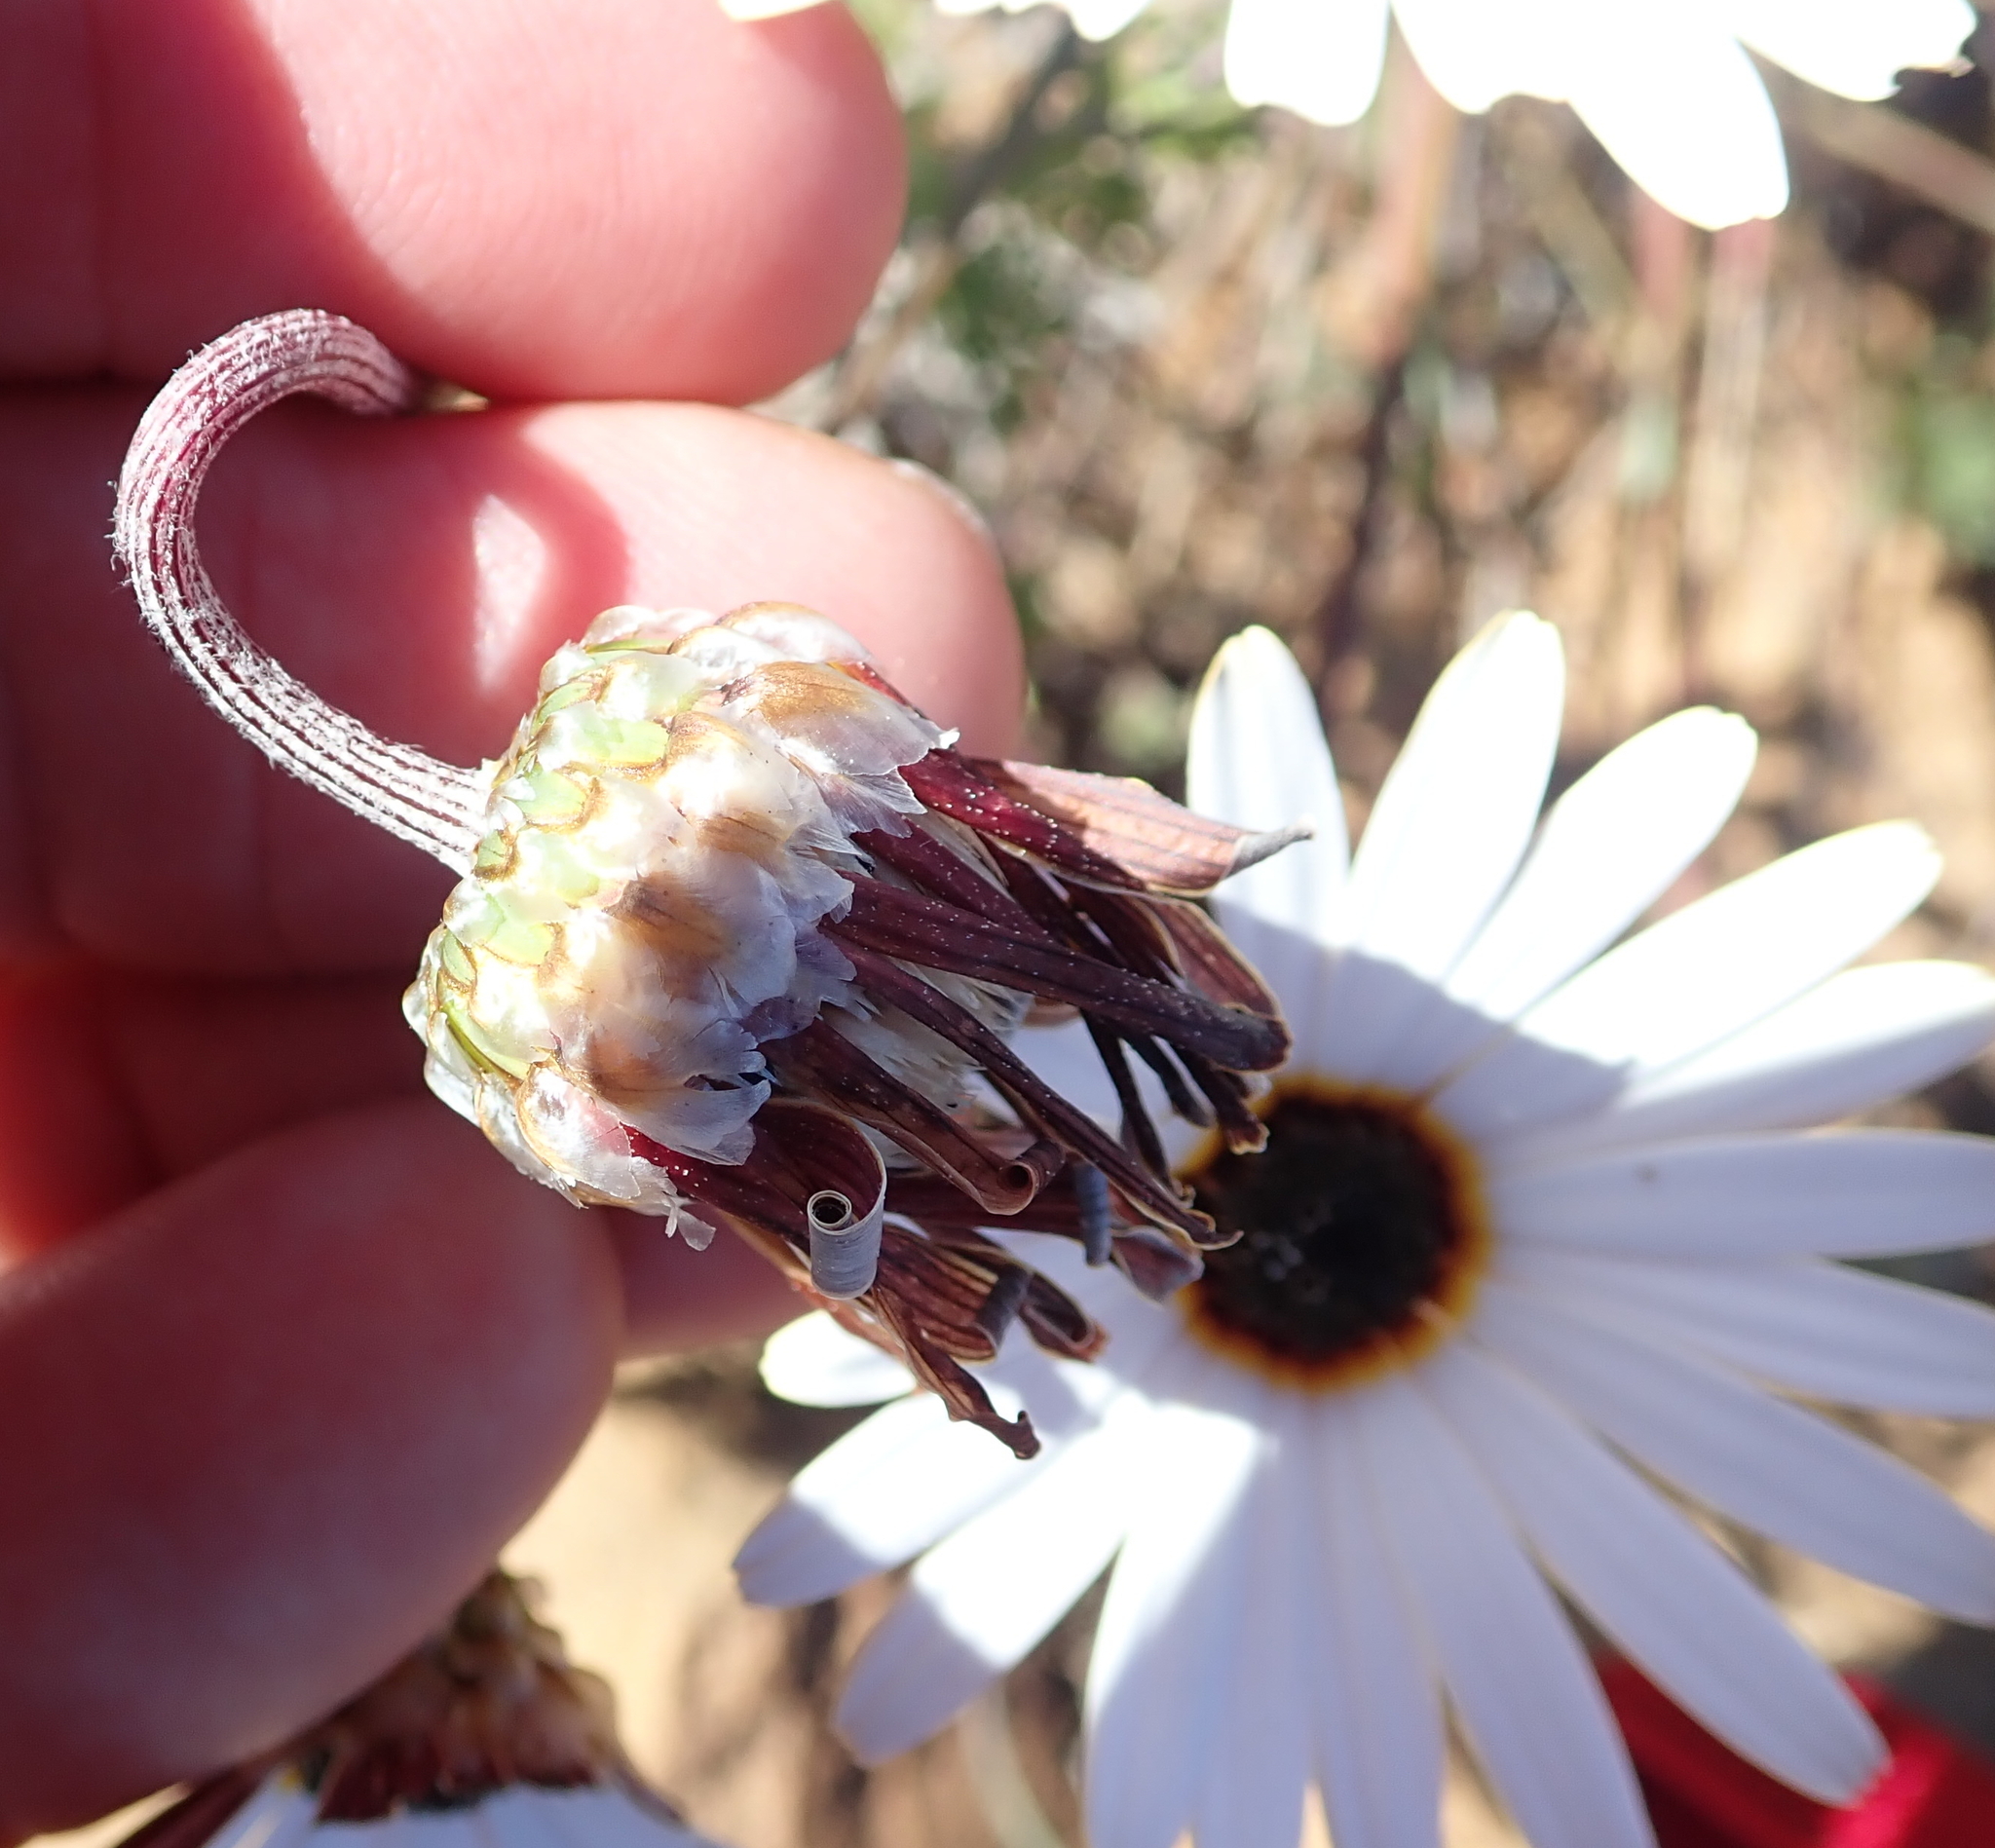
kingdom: Plantae
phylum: Tracheophyta
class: Magnoliopsida
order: Asterales
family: Asteraceae
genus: Ursinia
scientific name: Ursinia pilifera
